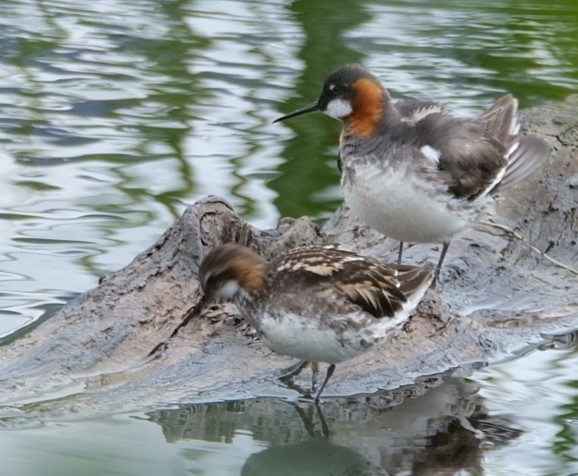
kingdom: Animalia
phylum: Chordata
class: Aves
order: Charadriiformes
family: Scolopacidae
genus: Phalaropus
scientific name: Phalaropus lobatus
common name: Red-necked phalarope
